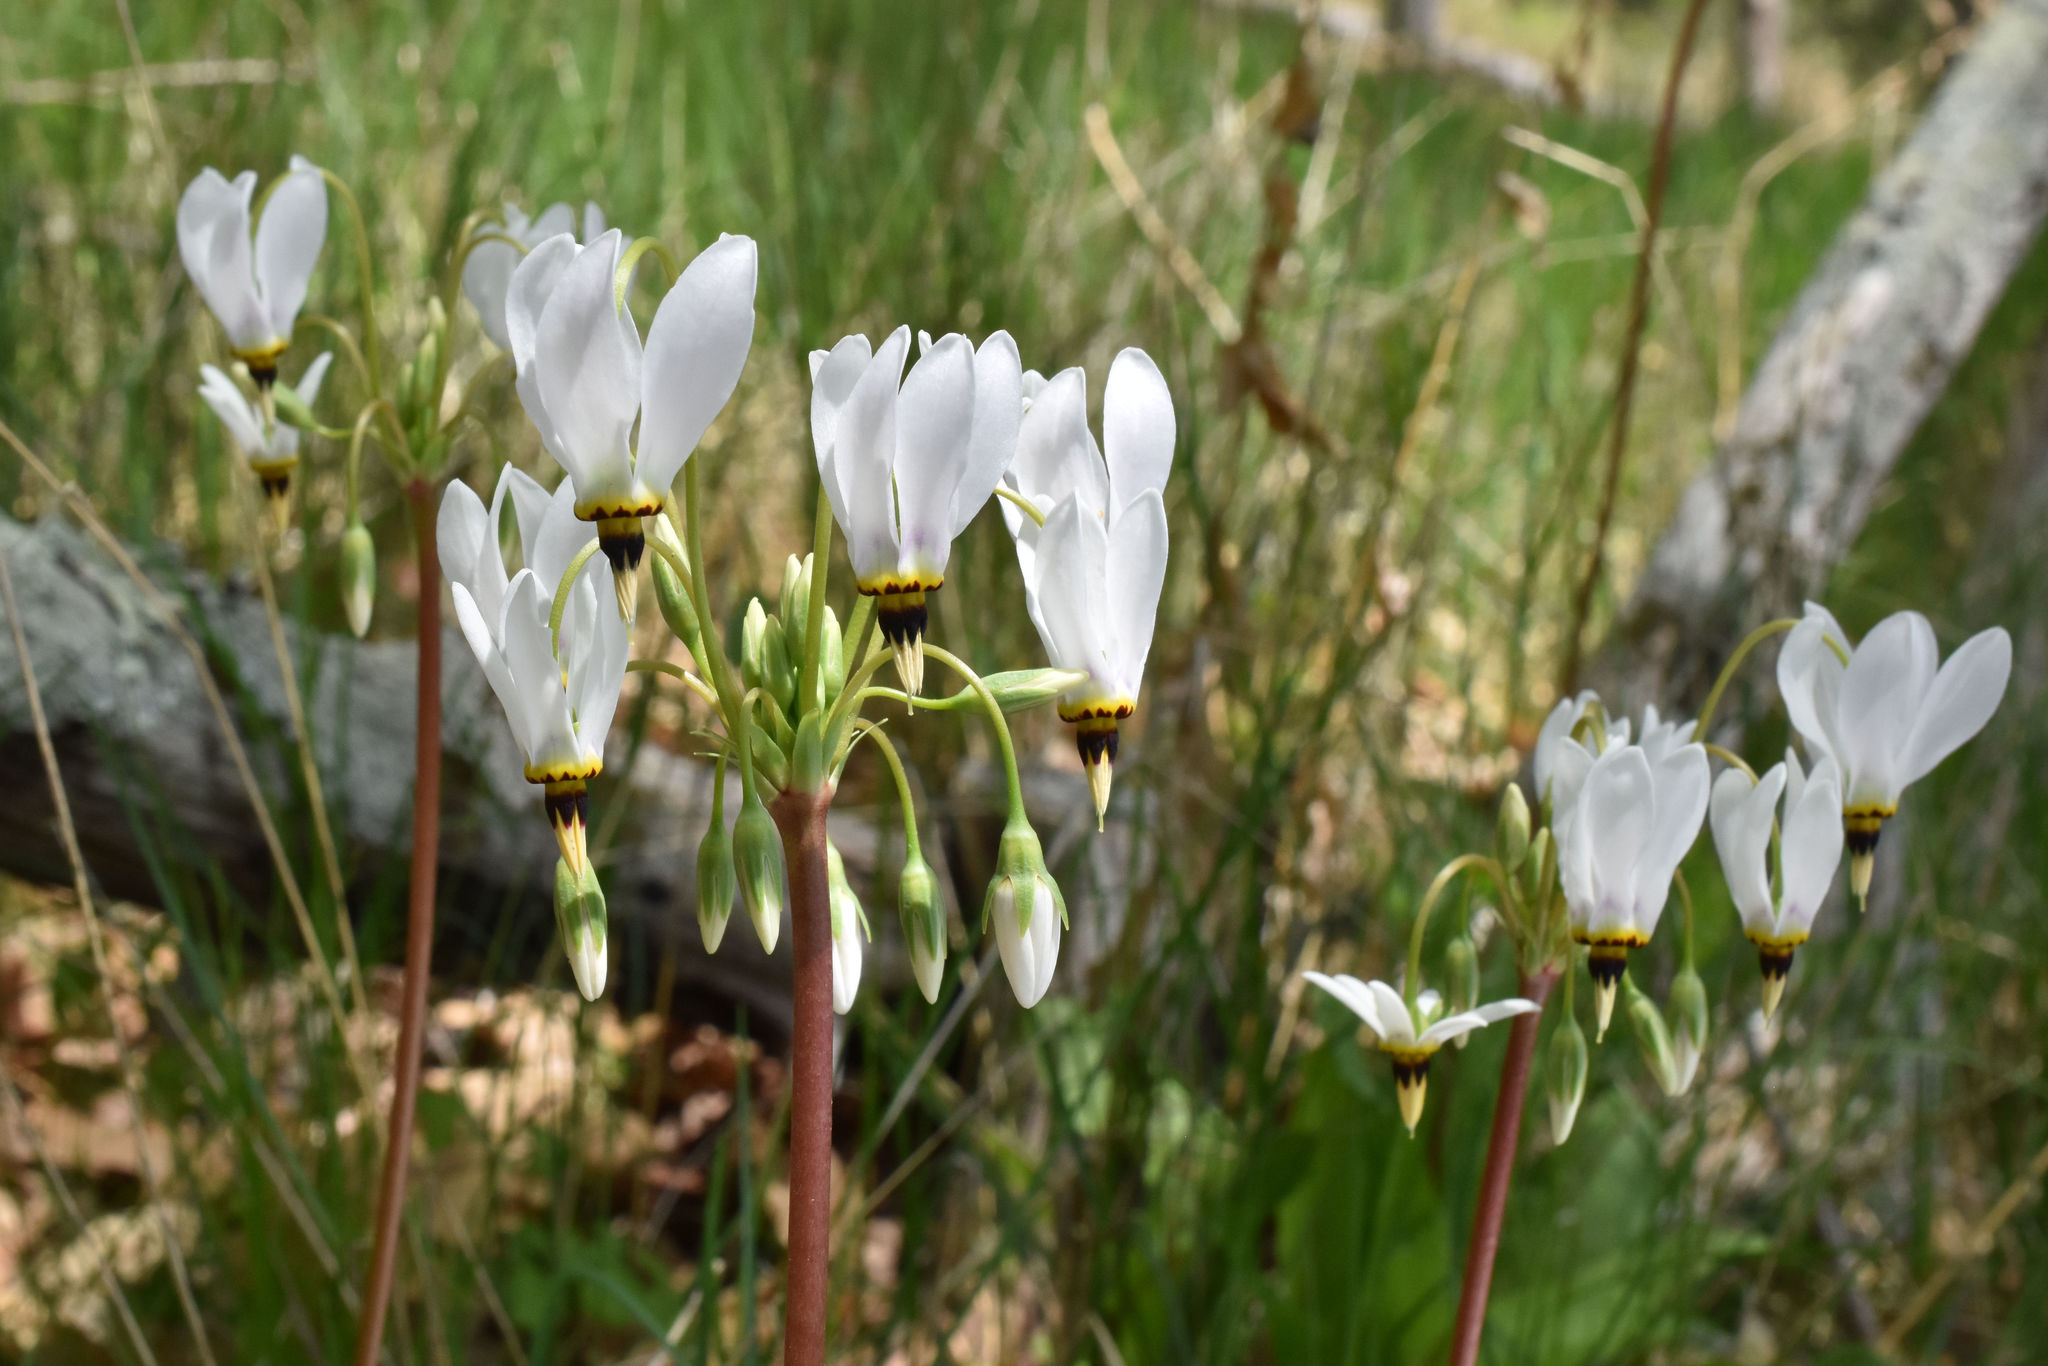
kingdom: Plantae
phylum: Tracheophyta
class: Magnoliopsida
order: Ericales
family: Primulaceae
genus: Dodecatheon
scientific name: Dodecatheon meadia
